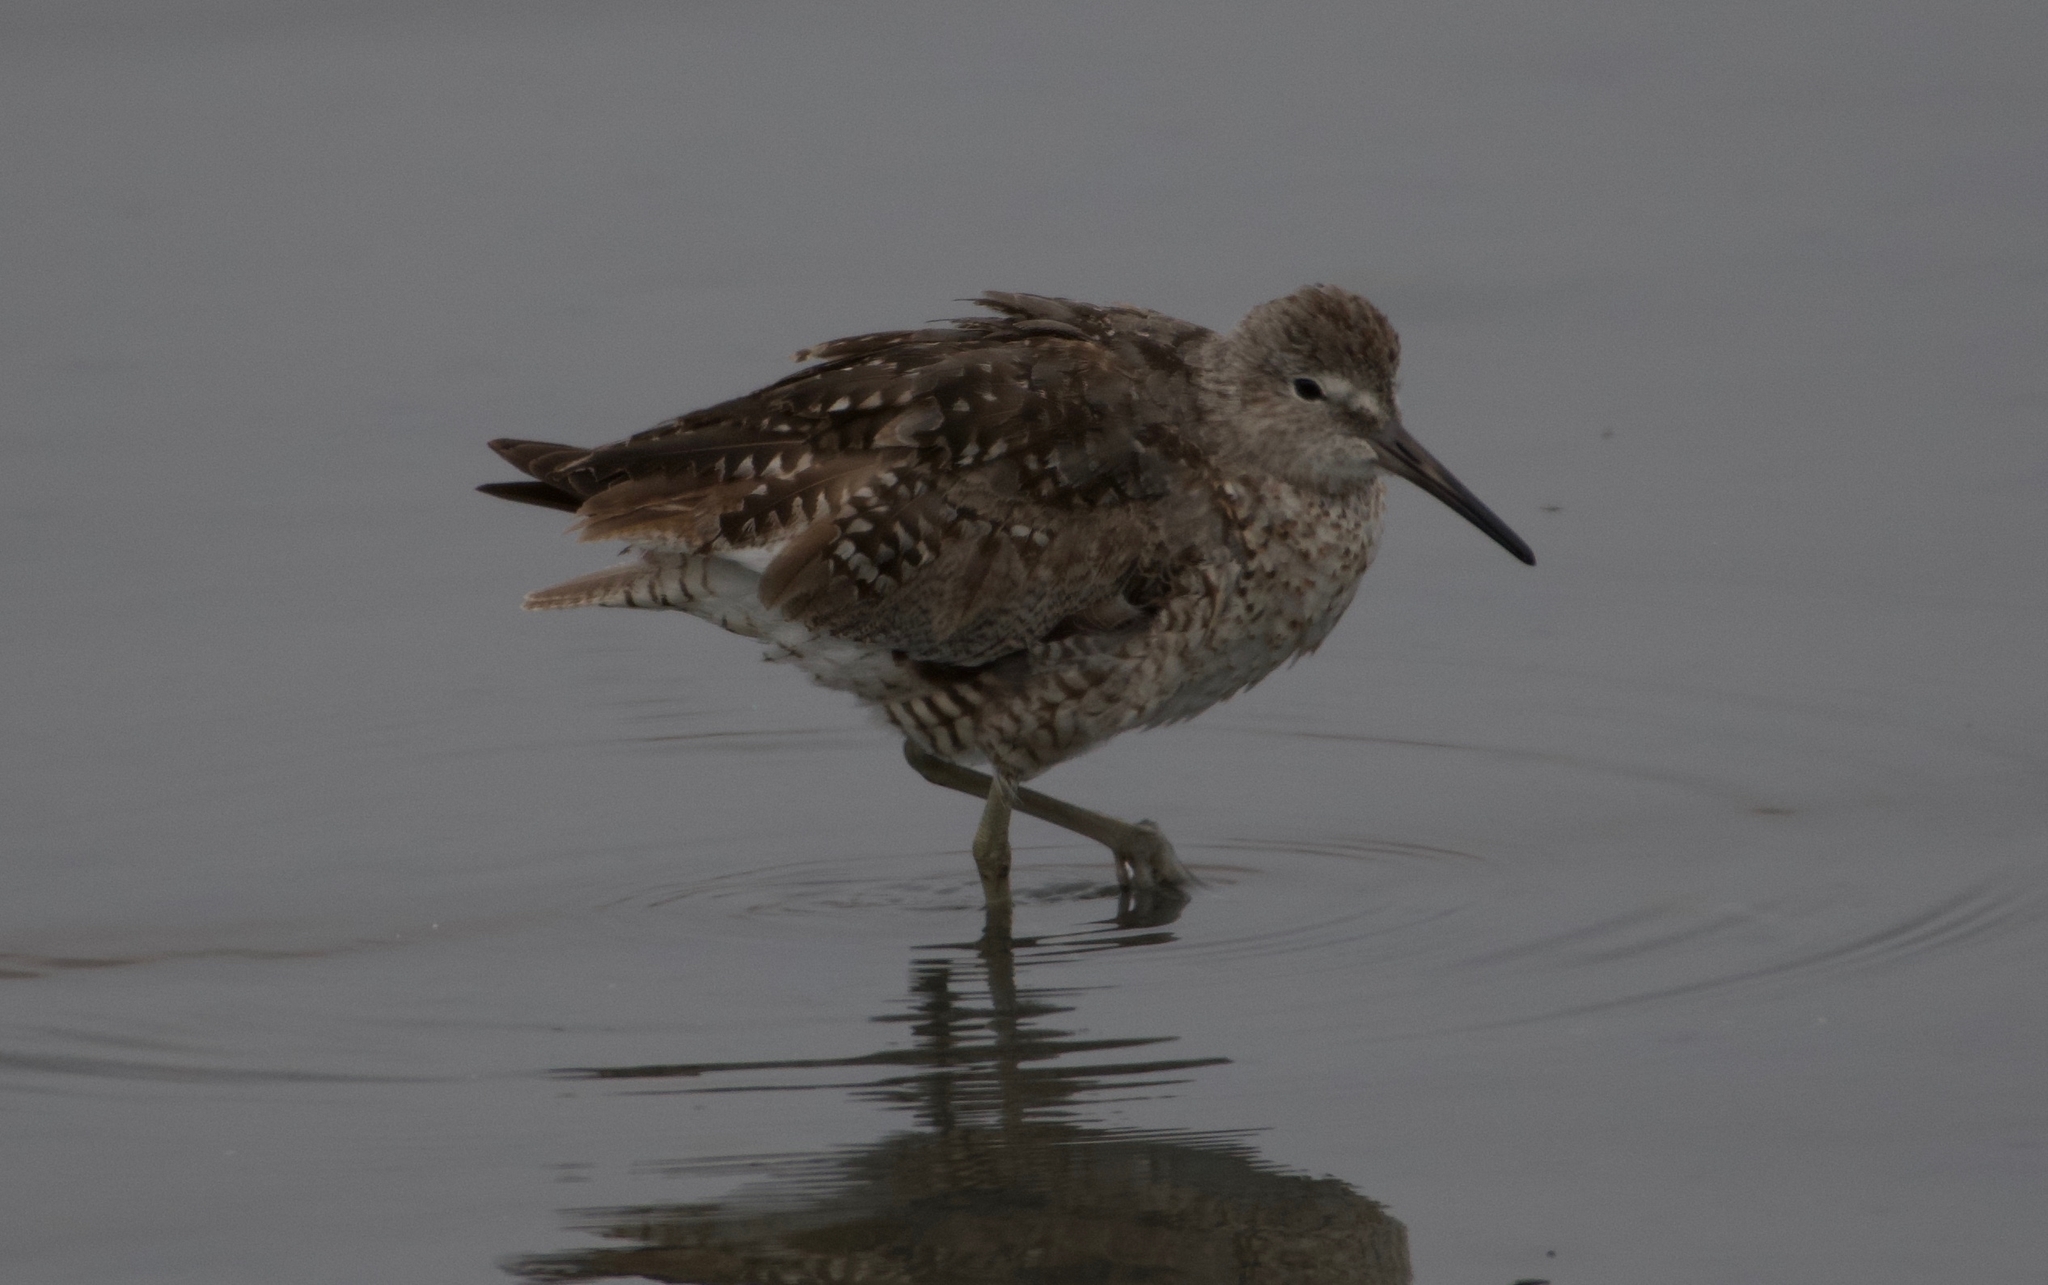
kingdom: Animalia
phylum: Chordata
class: Aves
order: Charadriiformes
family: Scolopacidae
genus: Tringa
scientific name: Tringa semipalmata
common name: Willet
